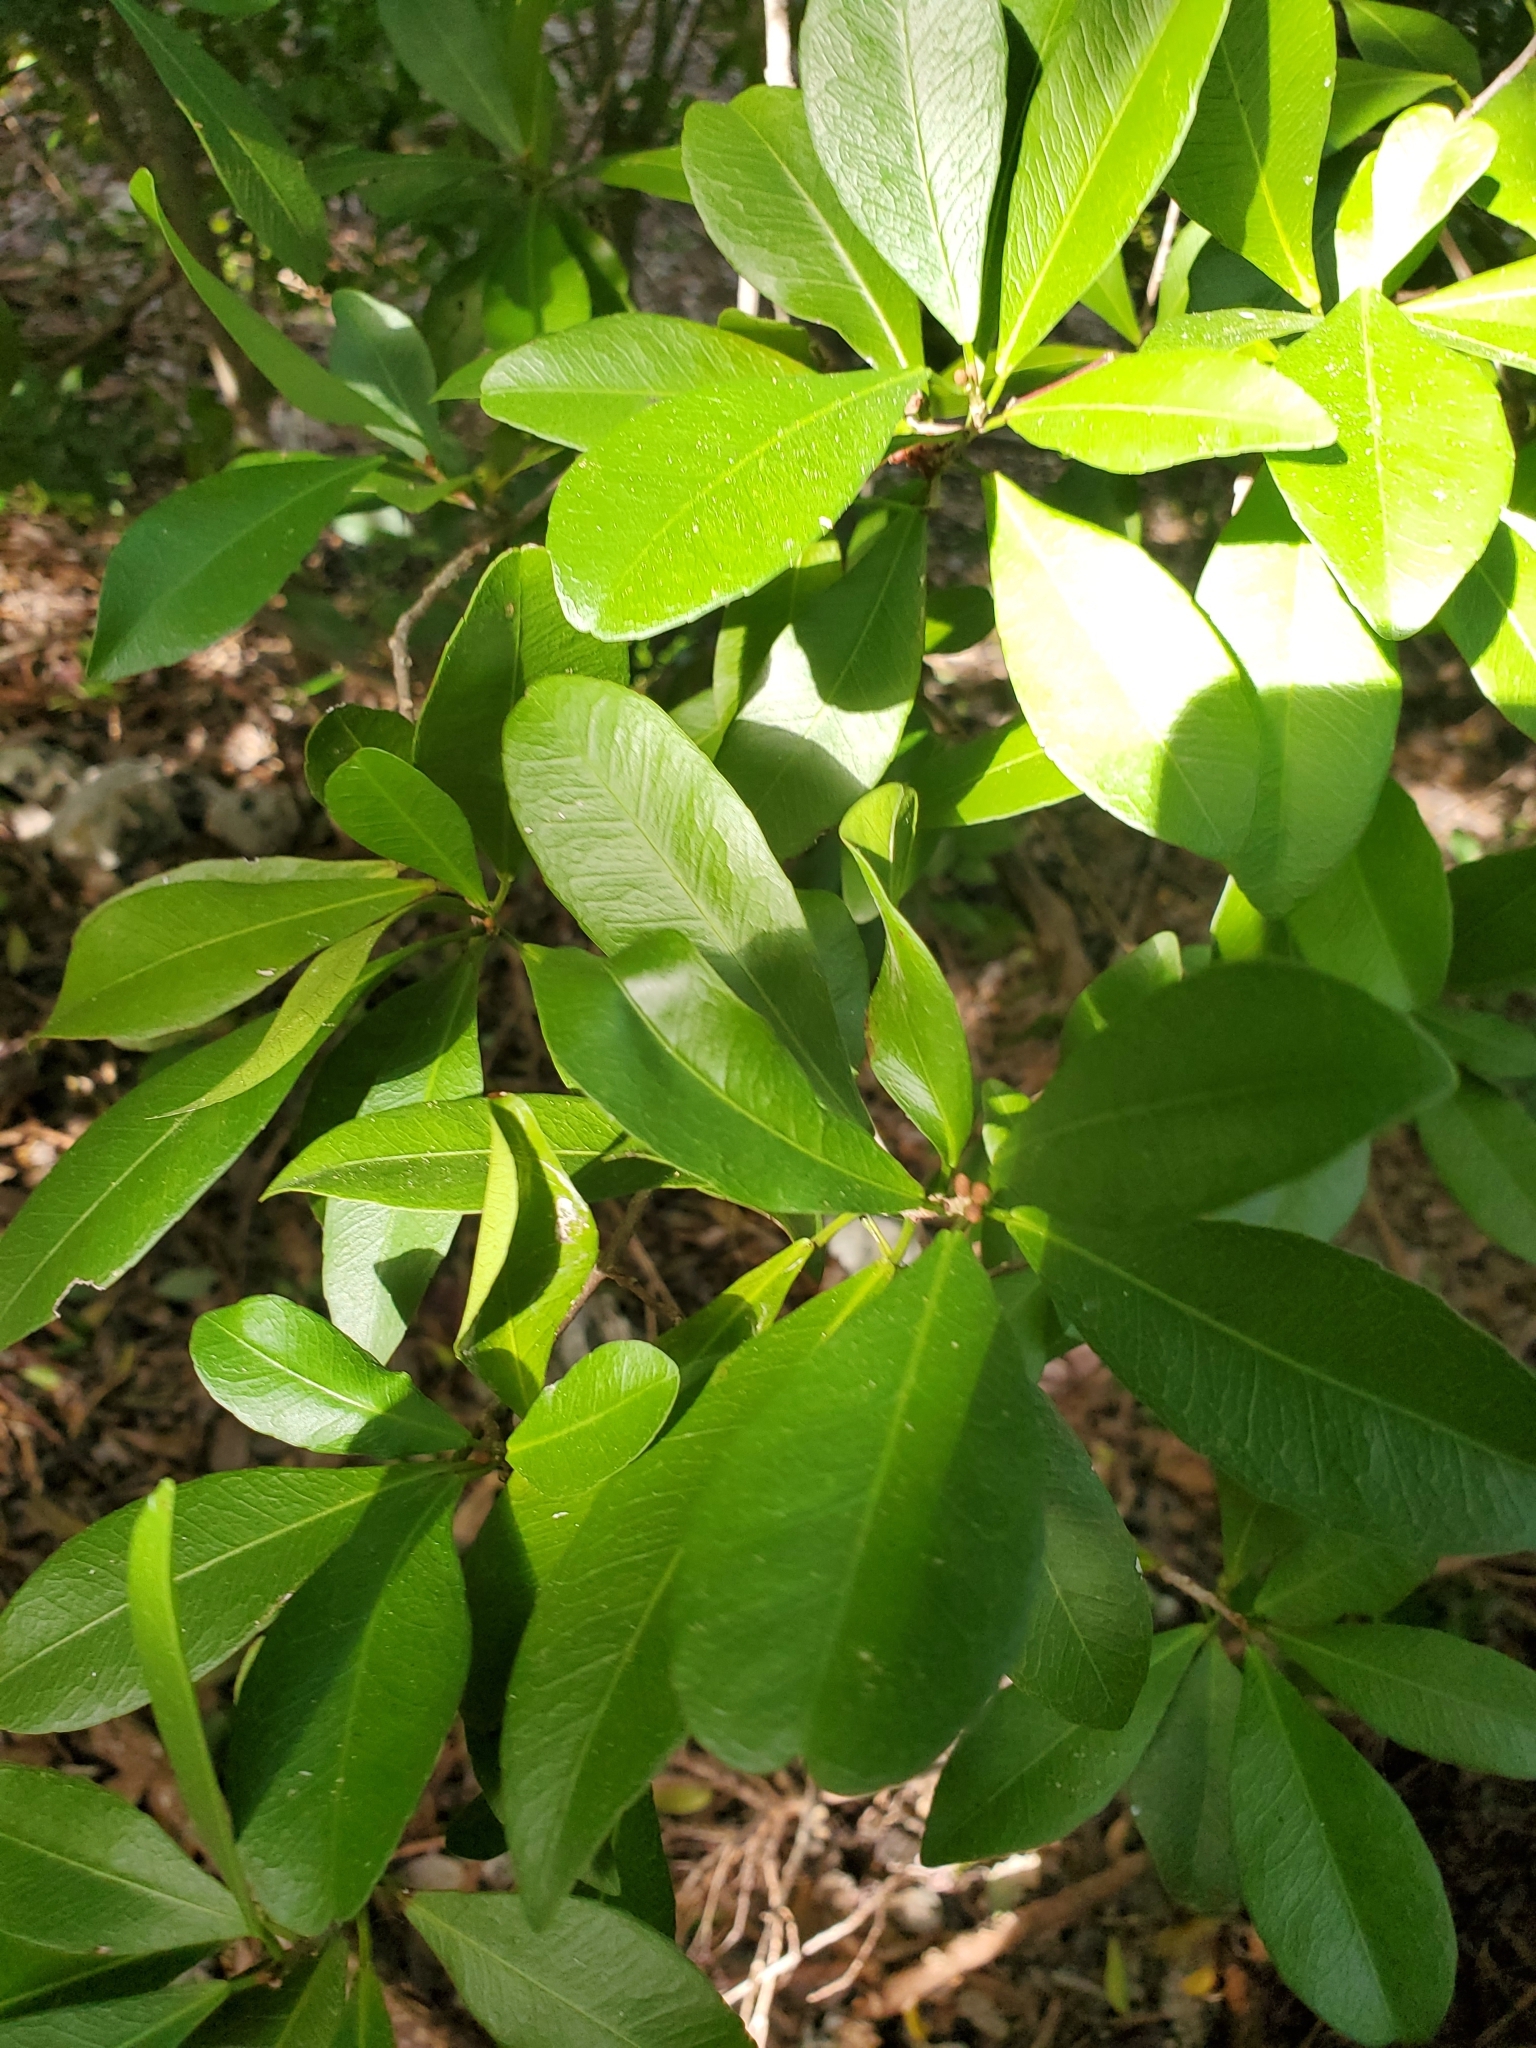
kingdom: Plantae
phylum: Tracheophyta
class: Magnoliopsida
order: Malpighiales
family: Euphorbiaceae
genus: Gymnanthes
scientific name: Gymnanthes lucida
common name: Oysterwood
